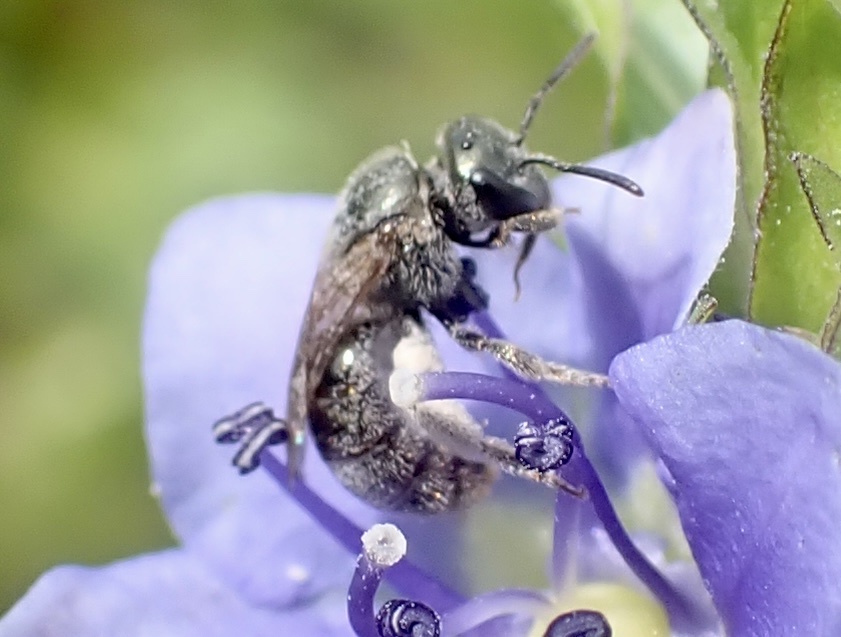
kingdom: Animalia
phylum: Arthropoda
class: Insecta
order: Hymenoptera
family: Halictidae
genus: Dialictus
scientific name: Dialictus
